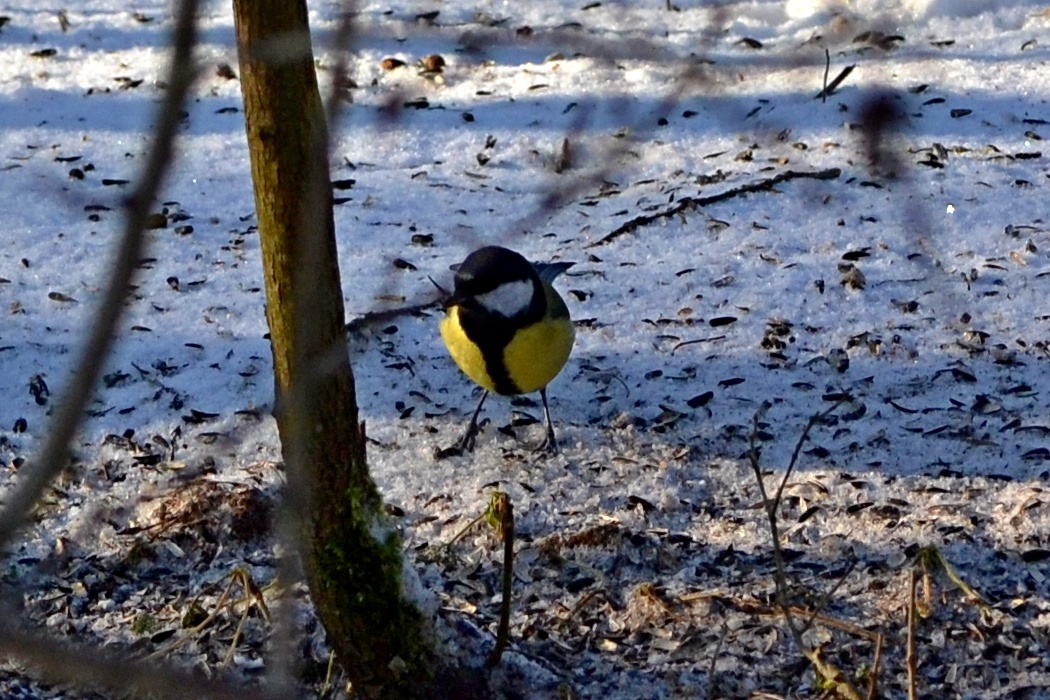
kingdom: Animalia
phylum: Chordata
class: Aves
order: Passeriformes
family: Paridae
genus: Parus
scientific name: Parus major
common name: Great tit
